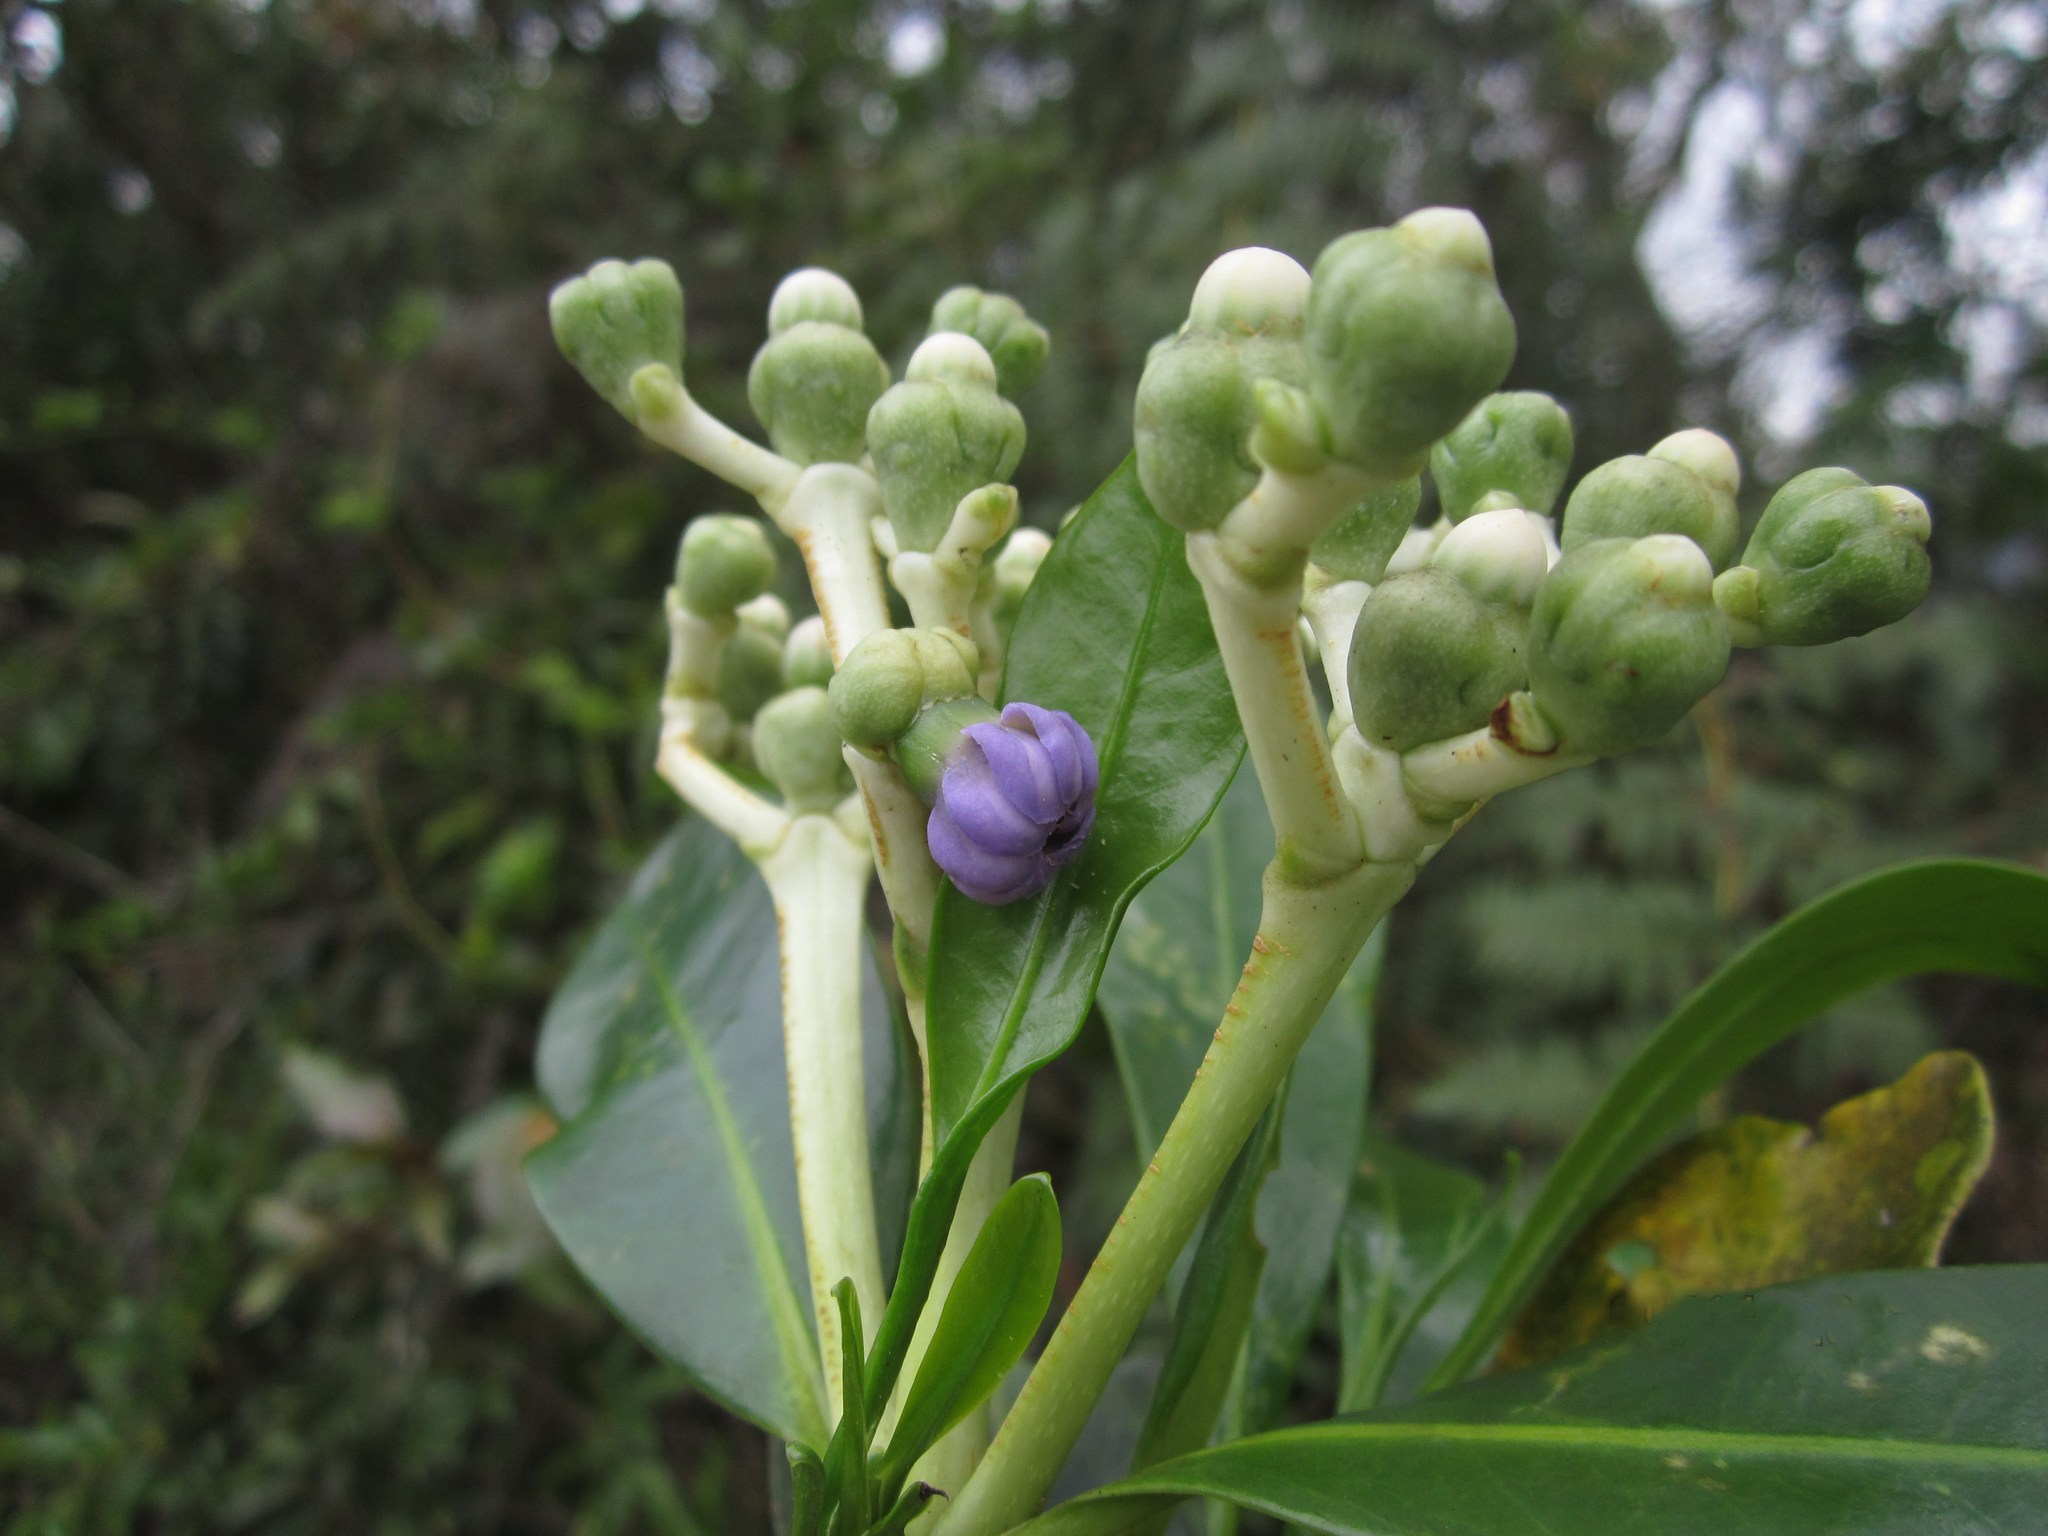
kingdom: Plantae
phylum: Tracheophyta
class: Magnoliopsida
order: Gentianales
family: Gentianaceae
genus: Anthocleista
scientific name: Anthocleista madagascariensis
